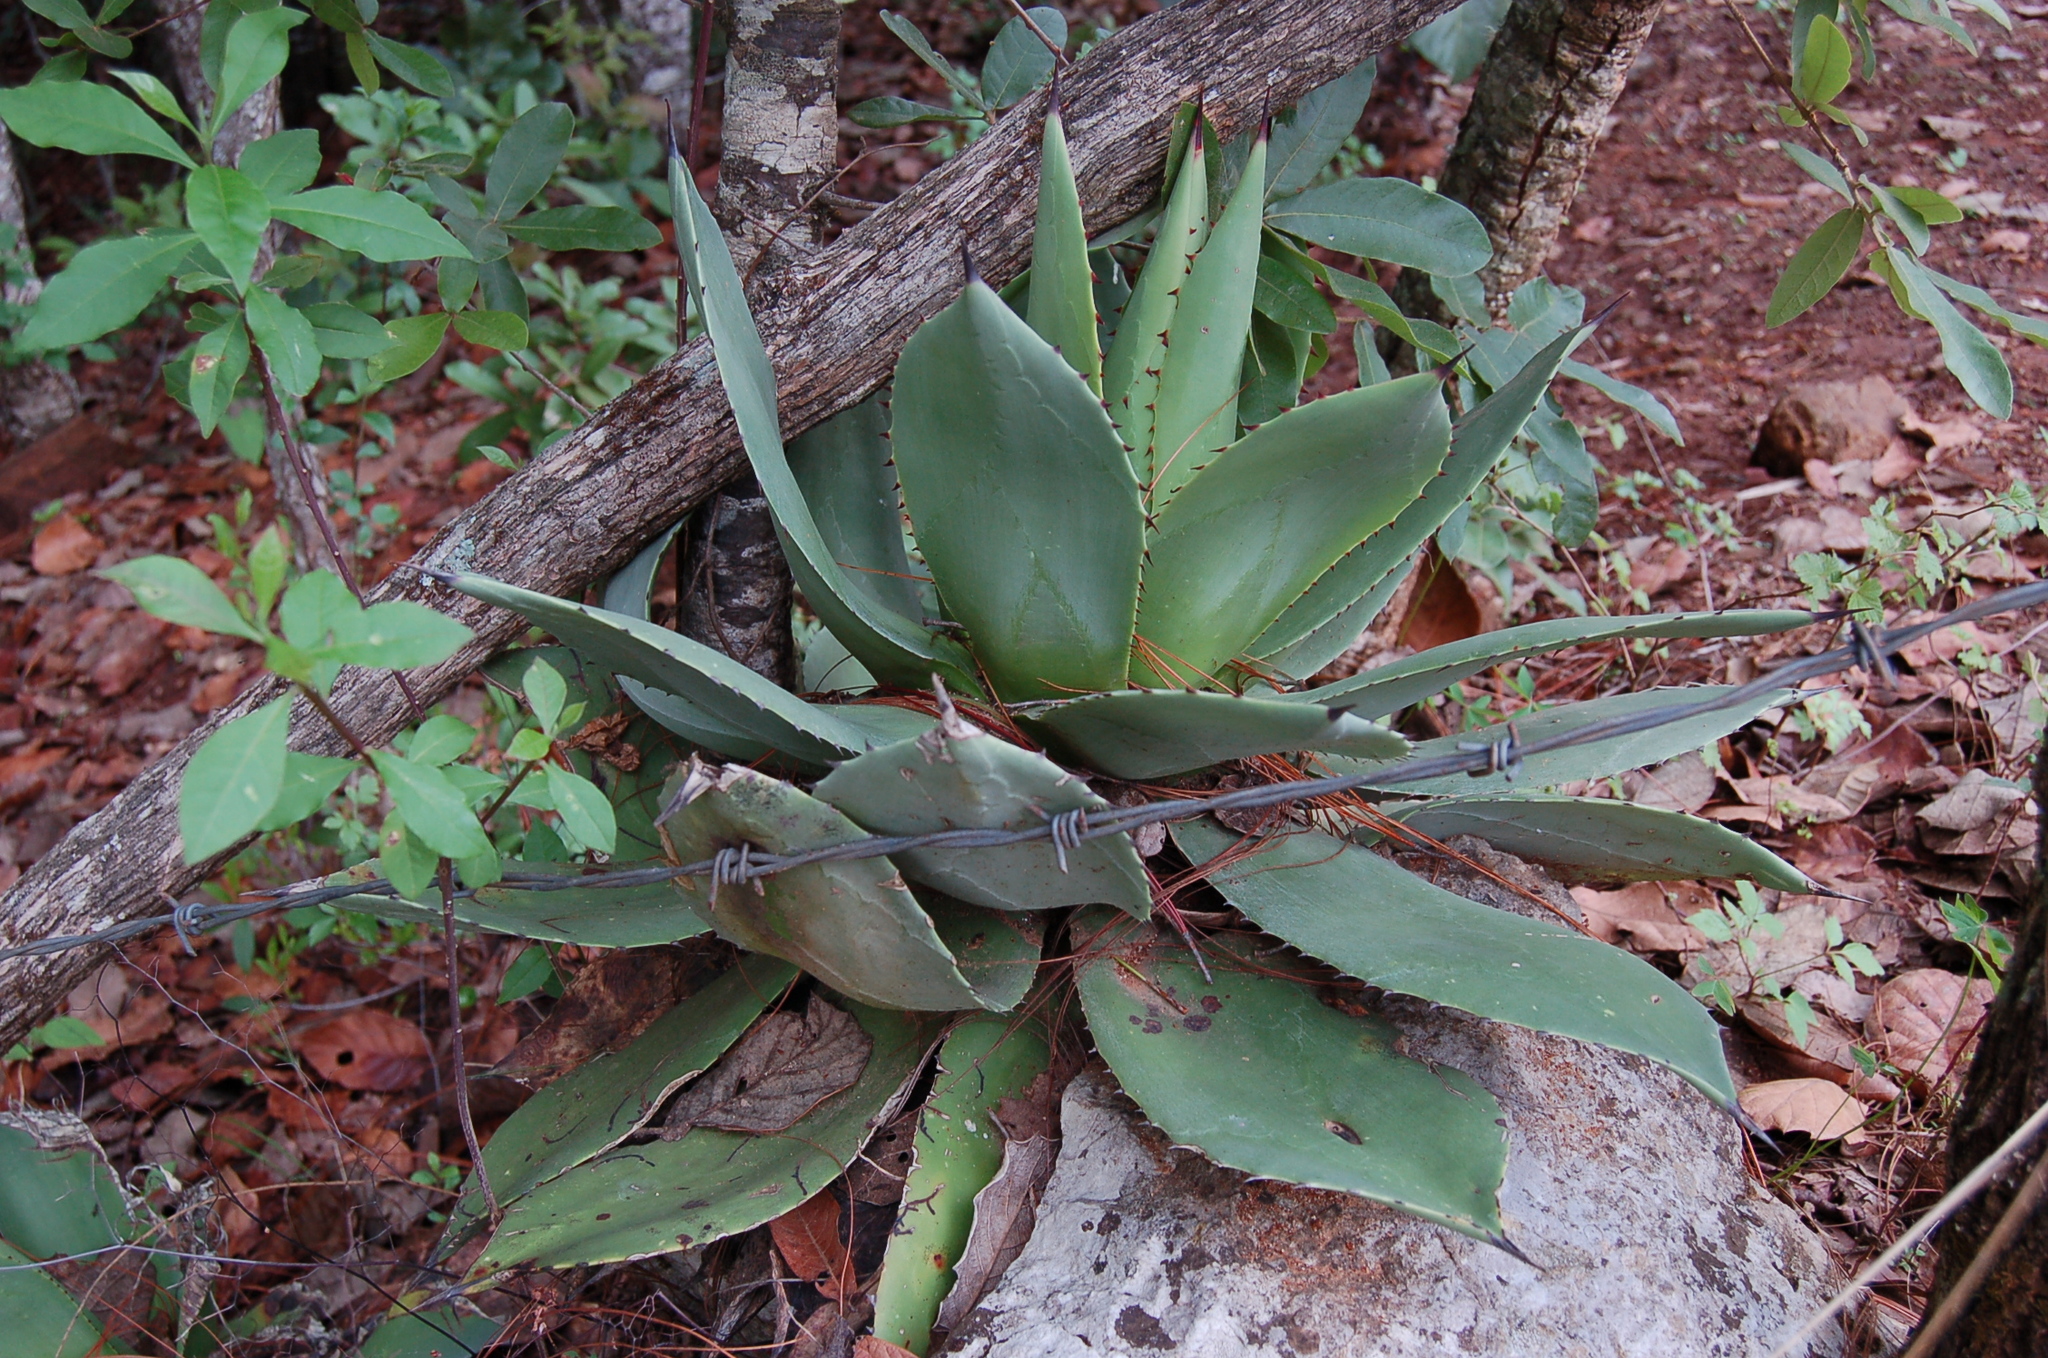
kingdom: Plantae
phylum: Tracheophyta
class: Liliopsida
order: Asparagales
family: Asparagaceae
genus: Agave
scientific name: Agave chiapensis
